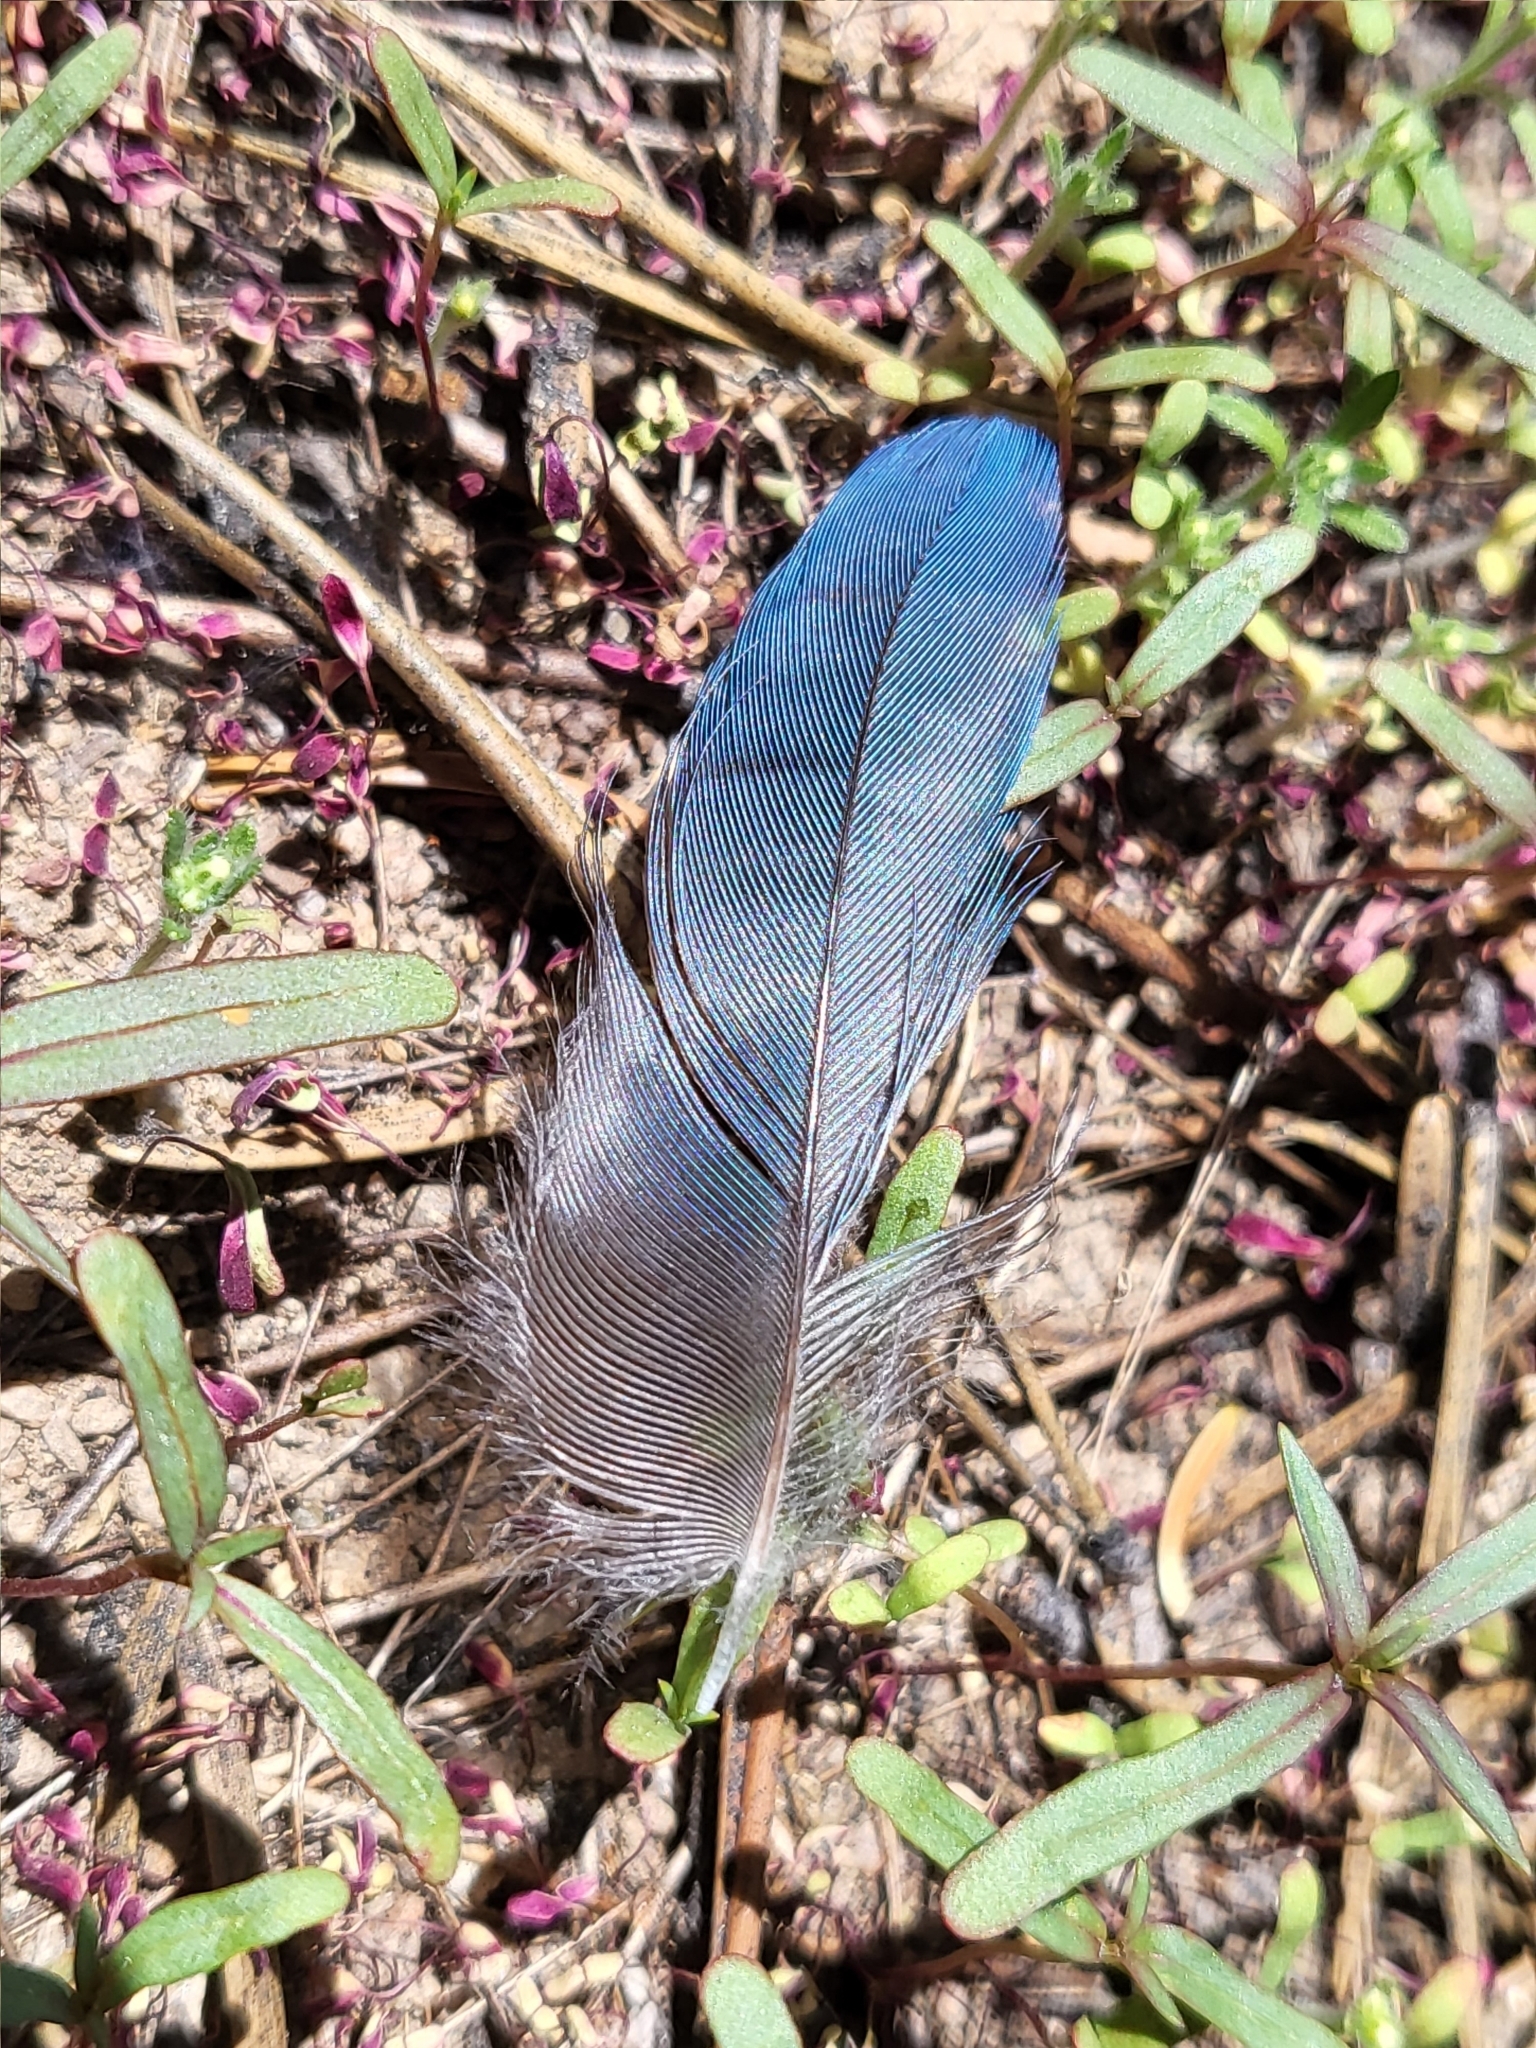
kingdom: Animalia
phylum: Chordata
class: Aves
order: Passeriformes
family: Corvidae
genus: Cyanocitta
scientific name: Cyanocitta stelleri
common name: Steller's jay
